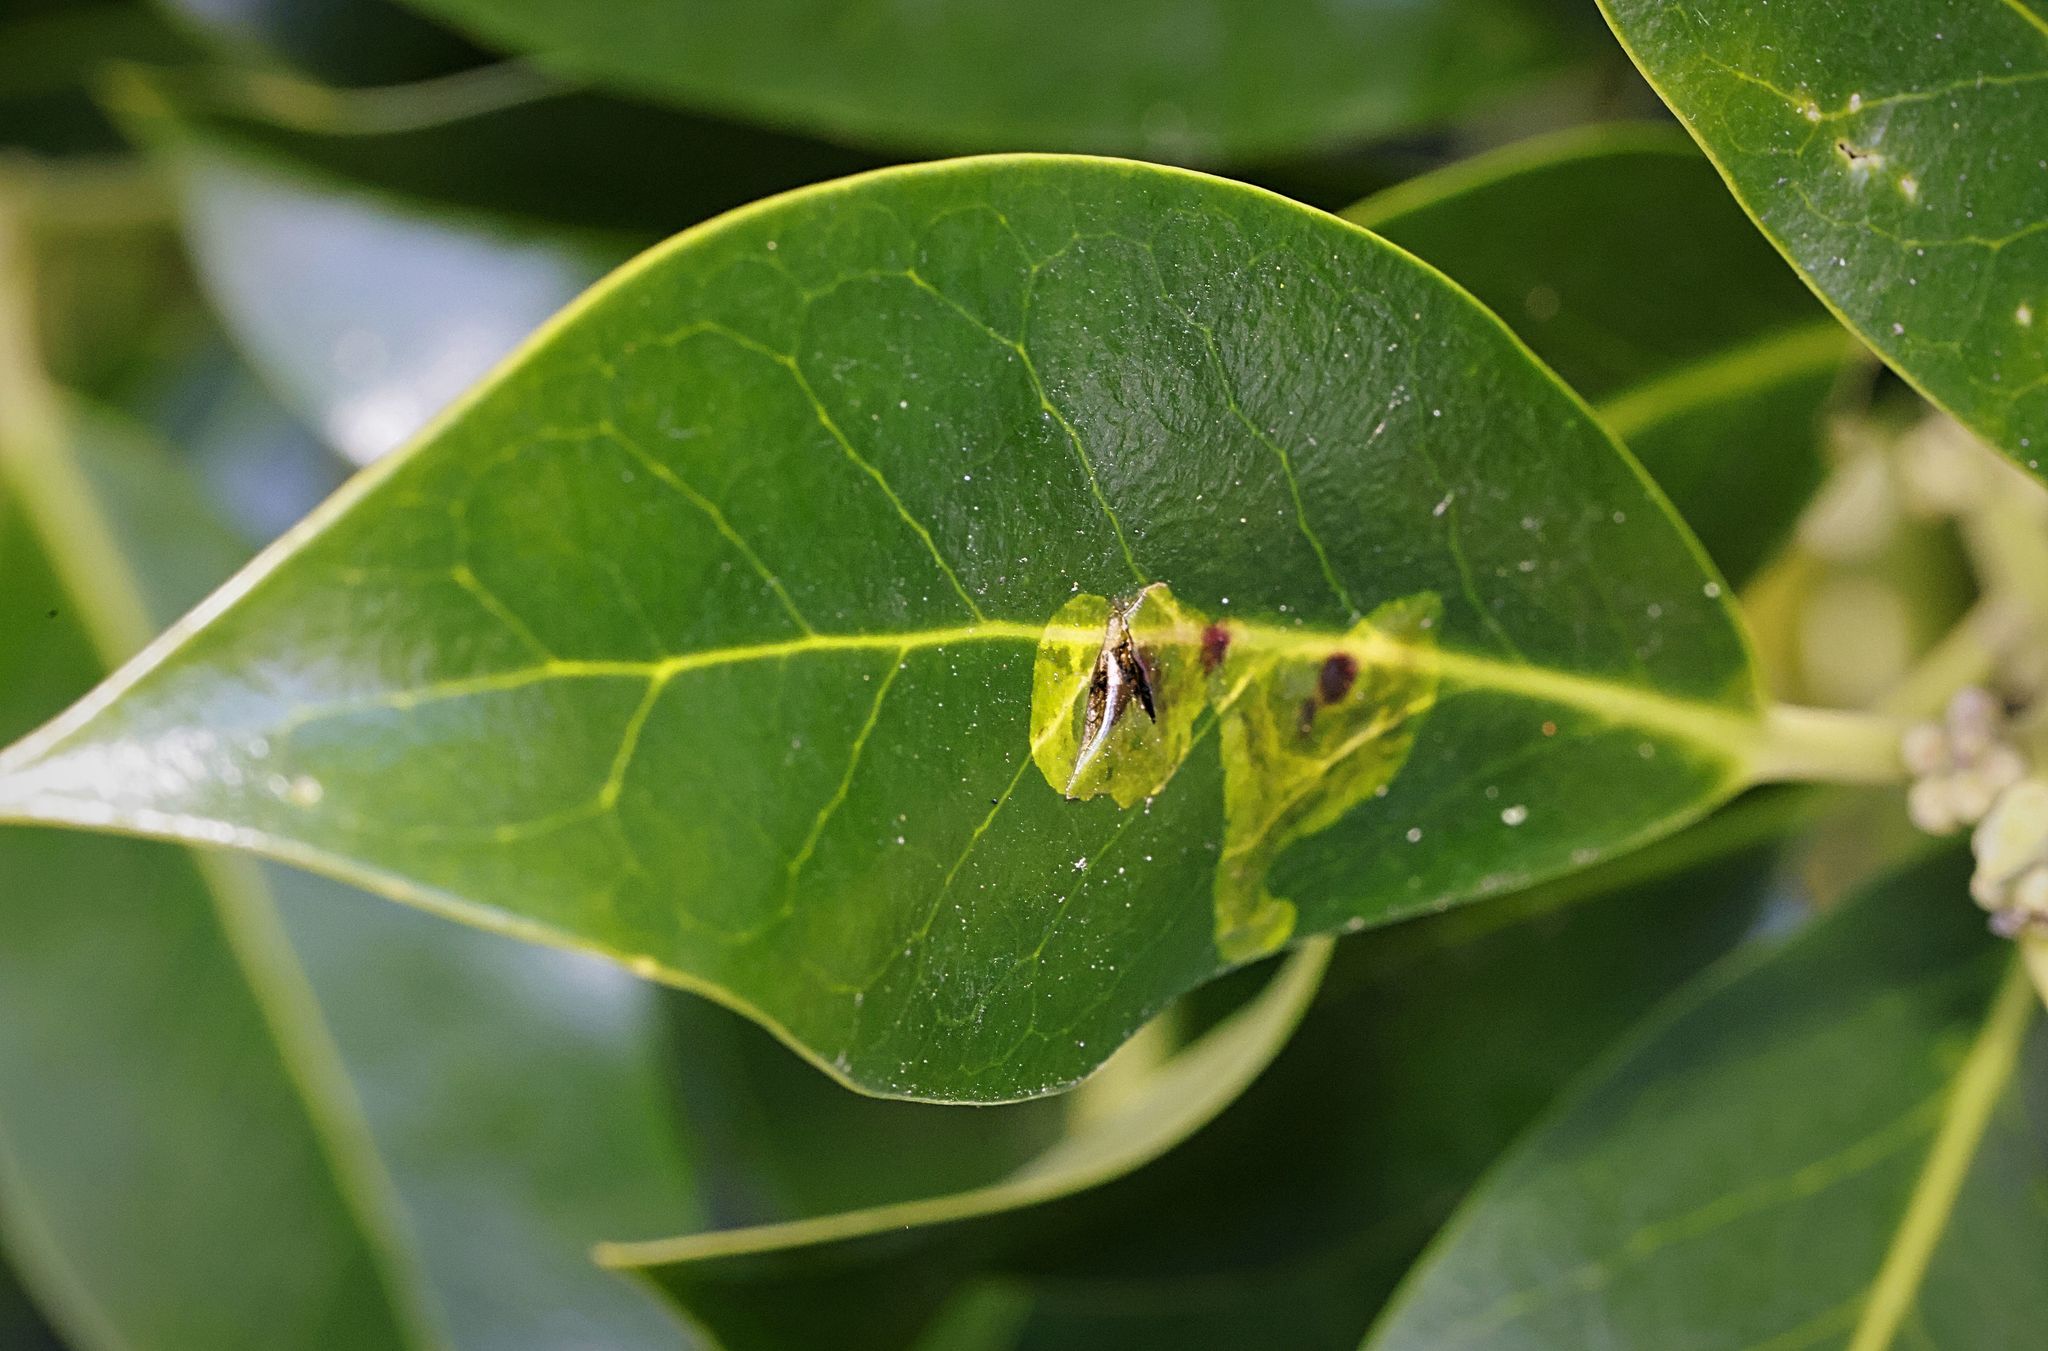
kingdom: Animalia
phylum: Arthropoda
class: Insecta
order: Diptera
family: Agromyzidae
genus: Phytomyza
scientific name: Phytomyza ilicis
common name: Holly leafminer
